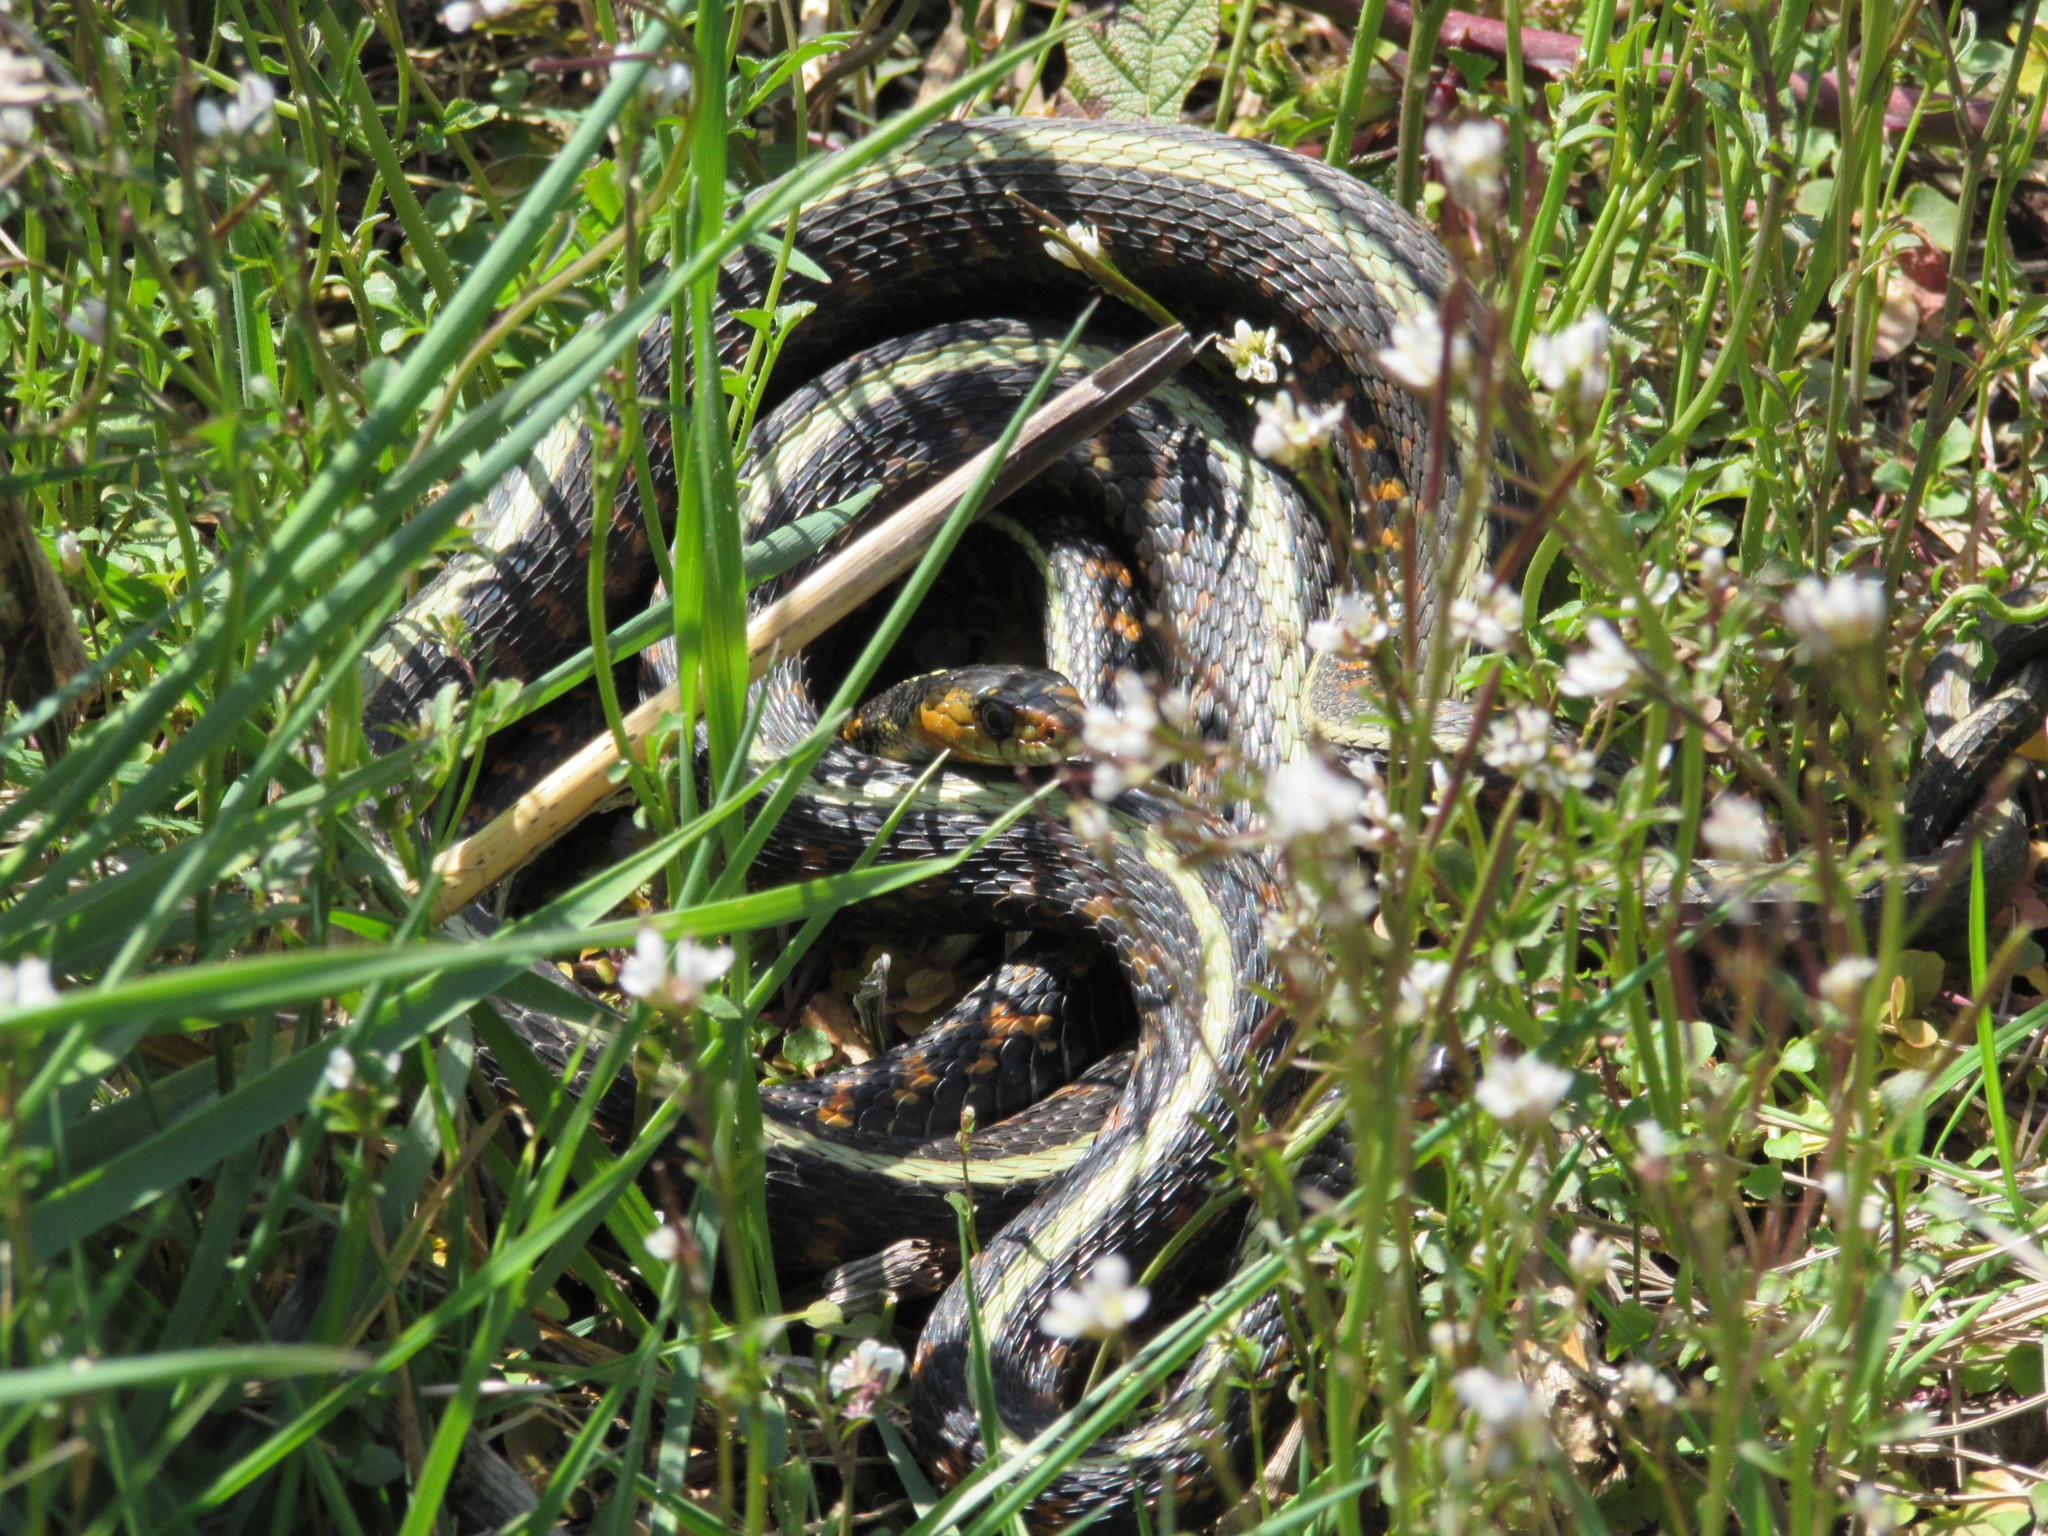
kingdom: Animalia
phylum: Chordata
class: Squamata
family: Colubridae
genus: Thamnophis
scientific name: Thamnophis sirtalis
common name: Common garter snake
